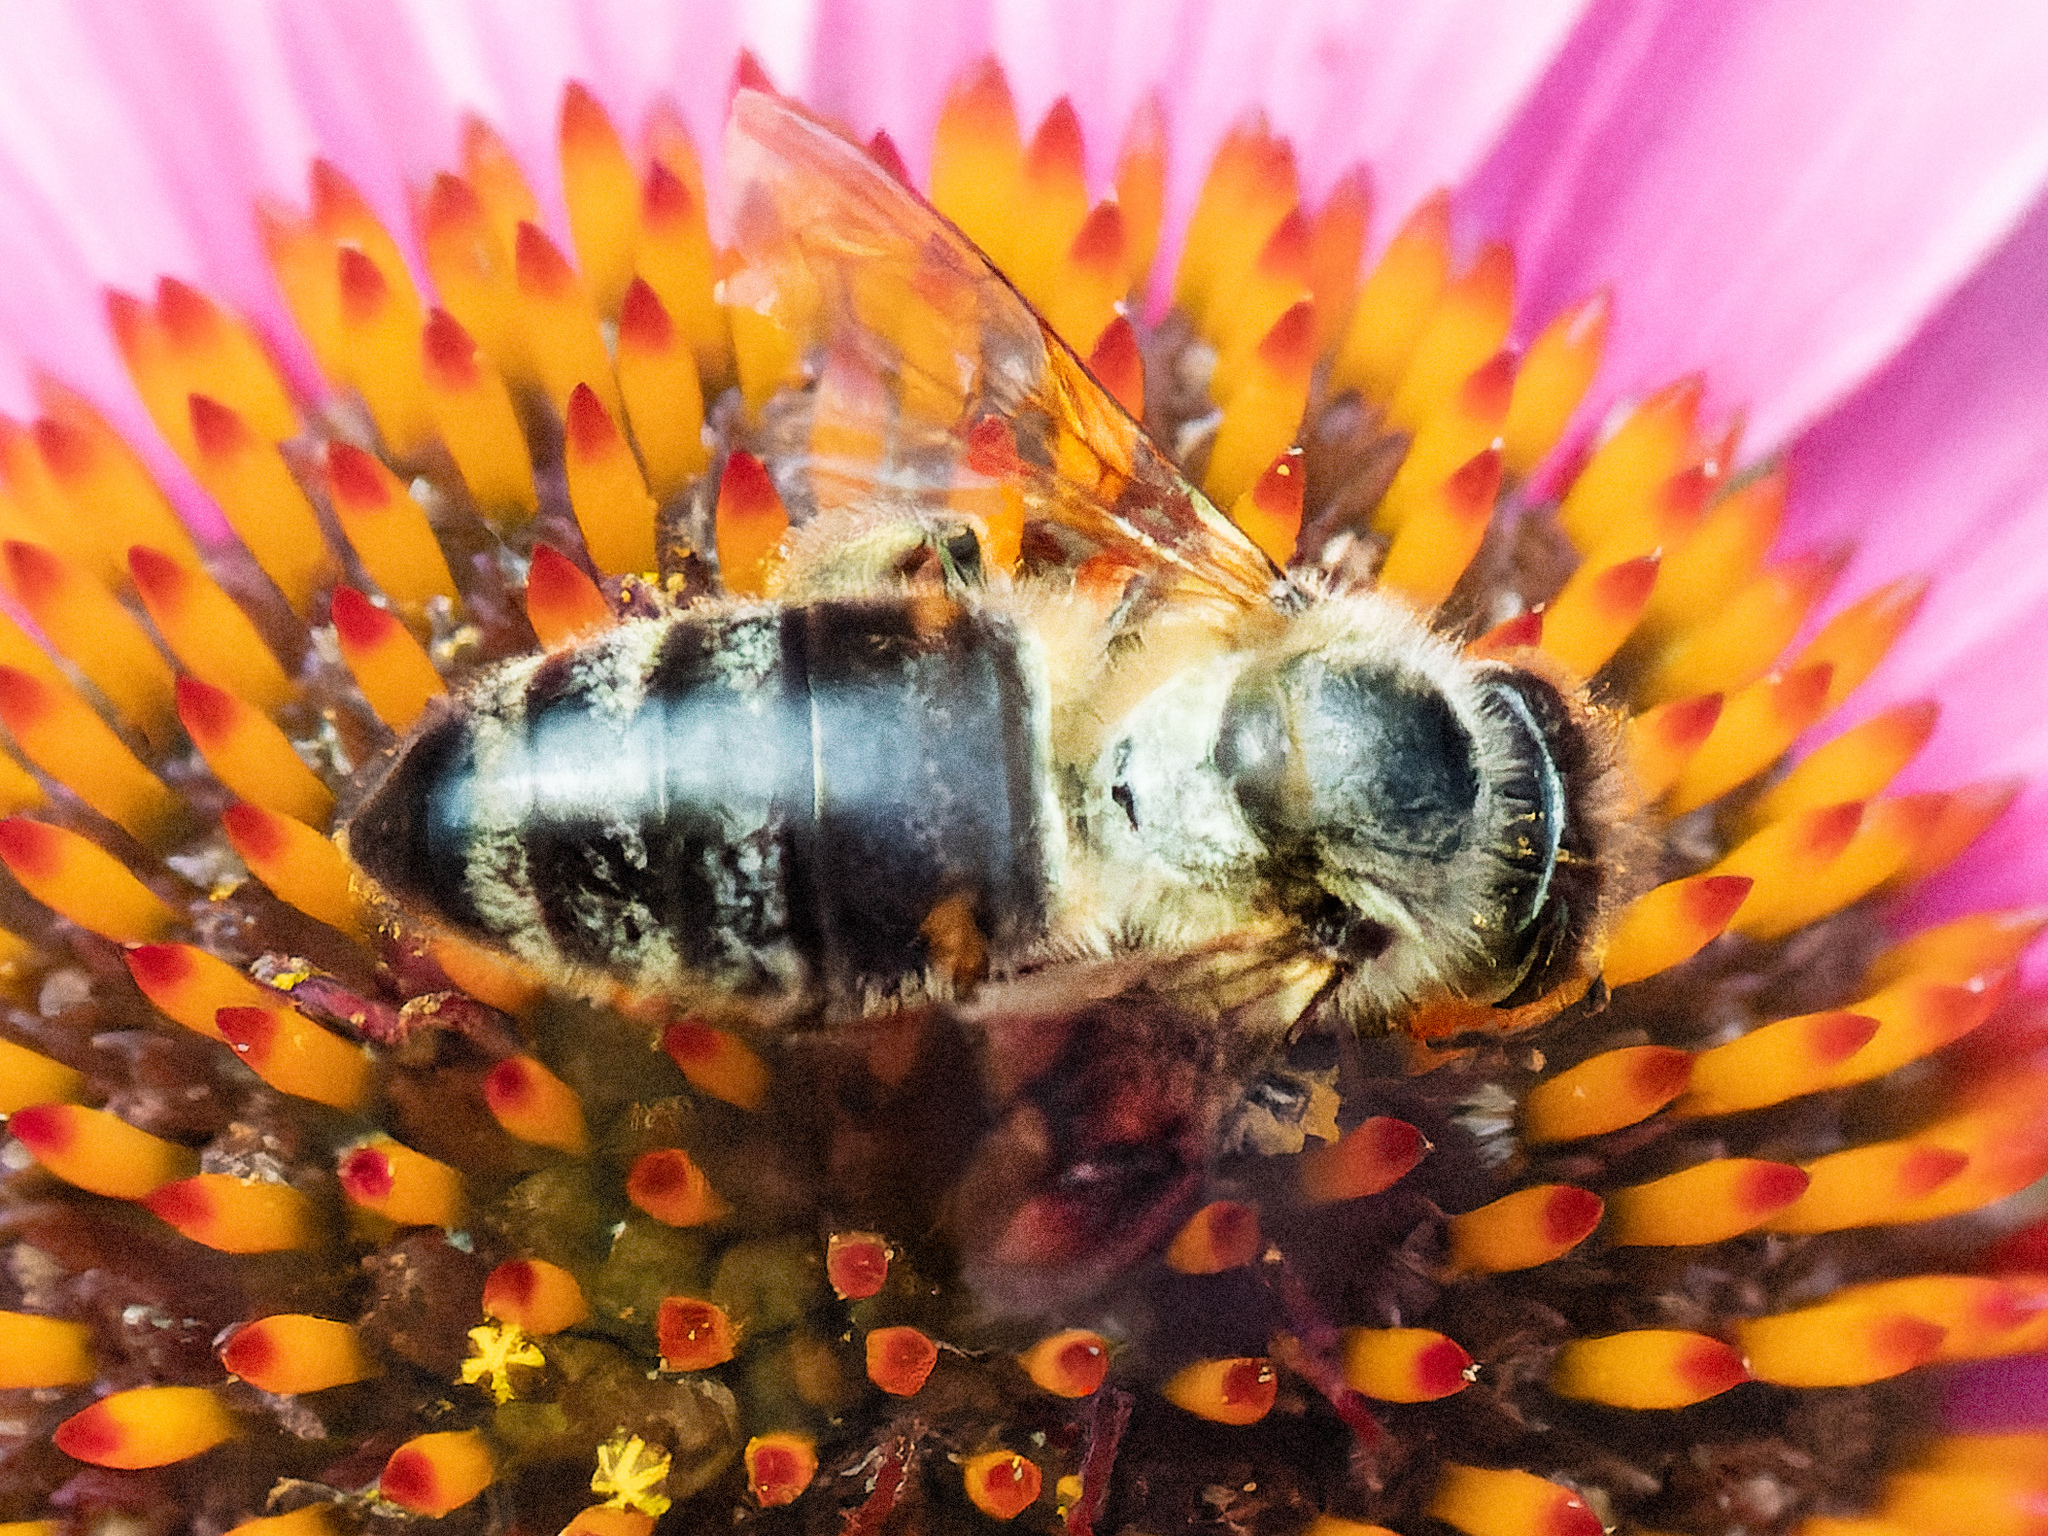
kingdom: Animalia
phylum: Arthropoda
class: Insecta
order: Hymenoptera
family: Apidae
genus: Apis
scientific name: Apis mellifera
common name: Honey bee
